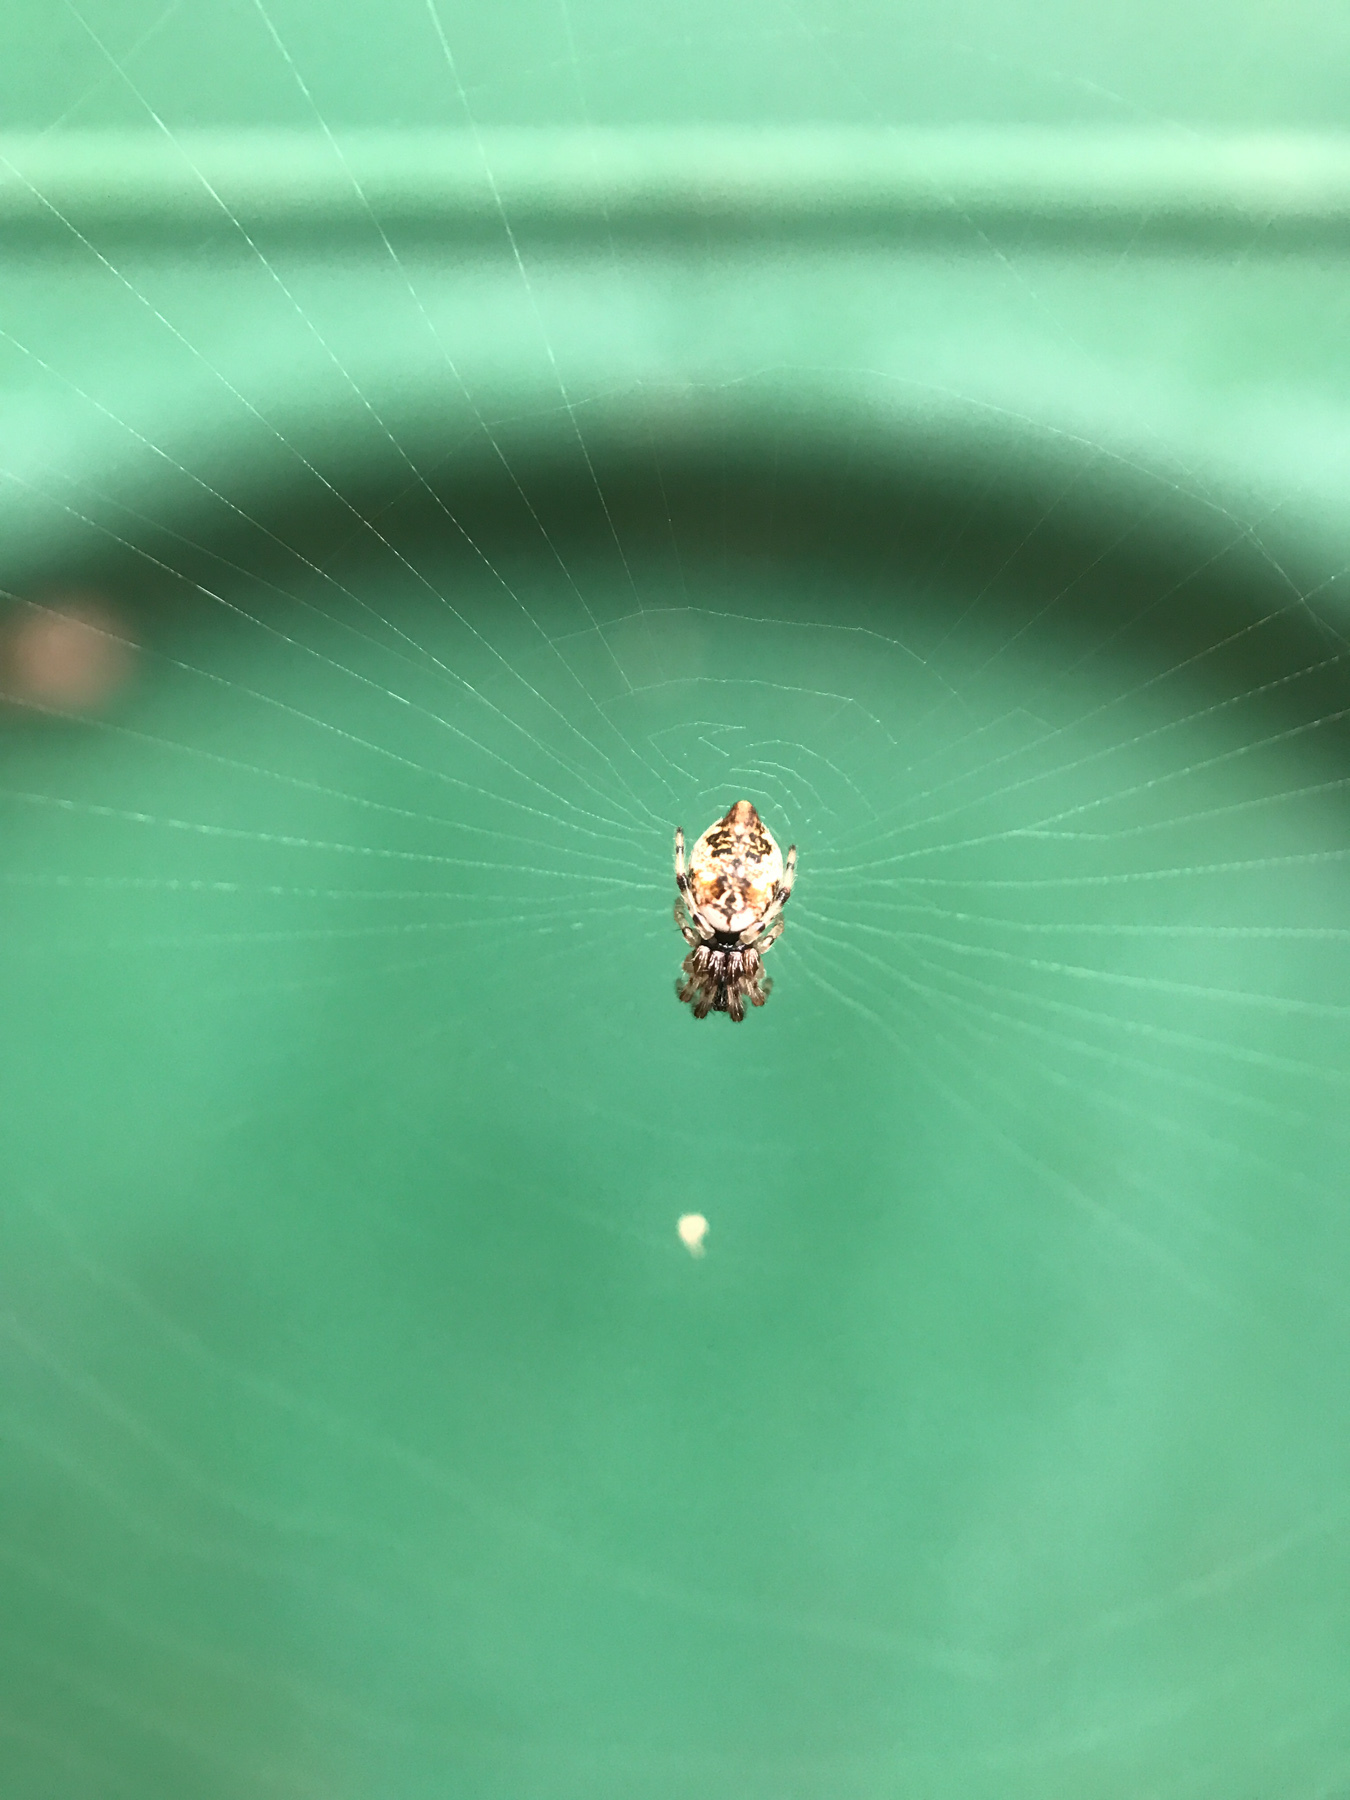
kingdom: Animalia
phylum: Arthropoda
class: Arachnida
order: Araneae
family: Araneidae
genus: Cyclosa
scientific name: Cyclosa turbinata
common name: Orb weavers
